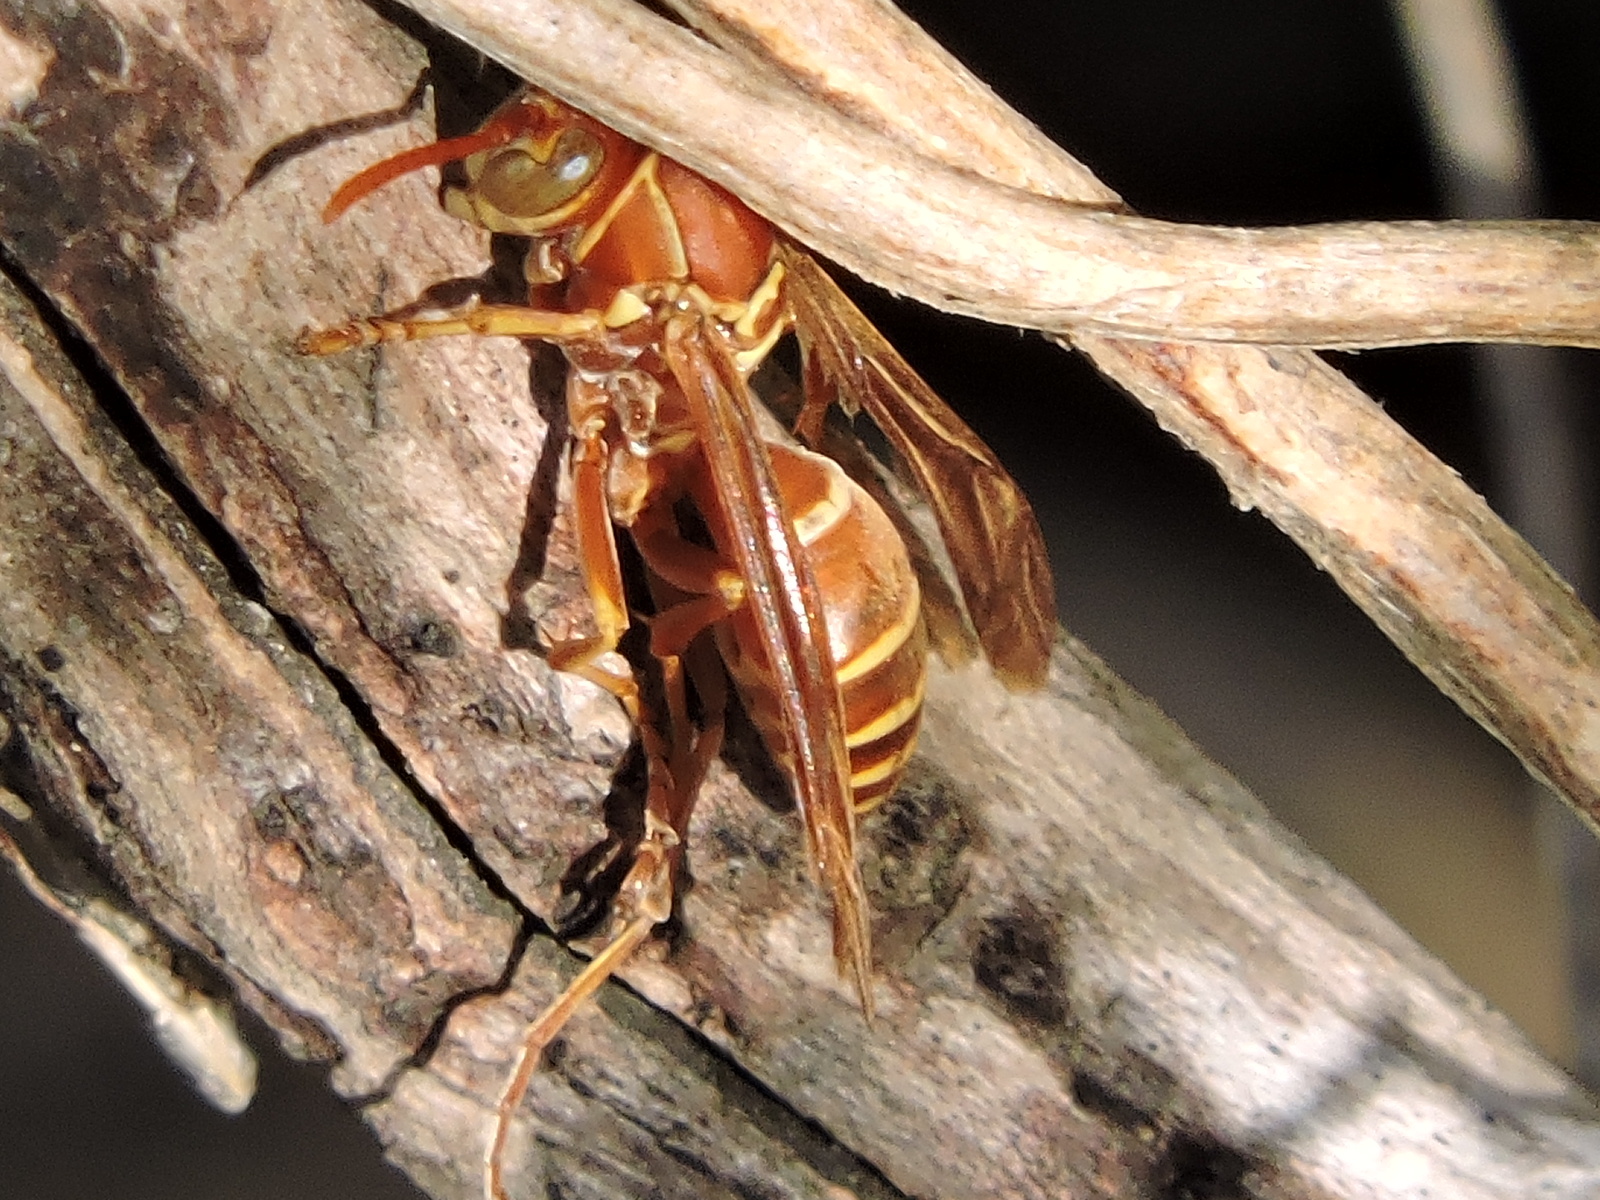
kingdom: Animalia
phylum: Arthropoda
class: Insecta
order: Hymenoptera
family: Eumenidae
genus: Polistes
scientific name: Polistes bellicosus
